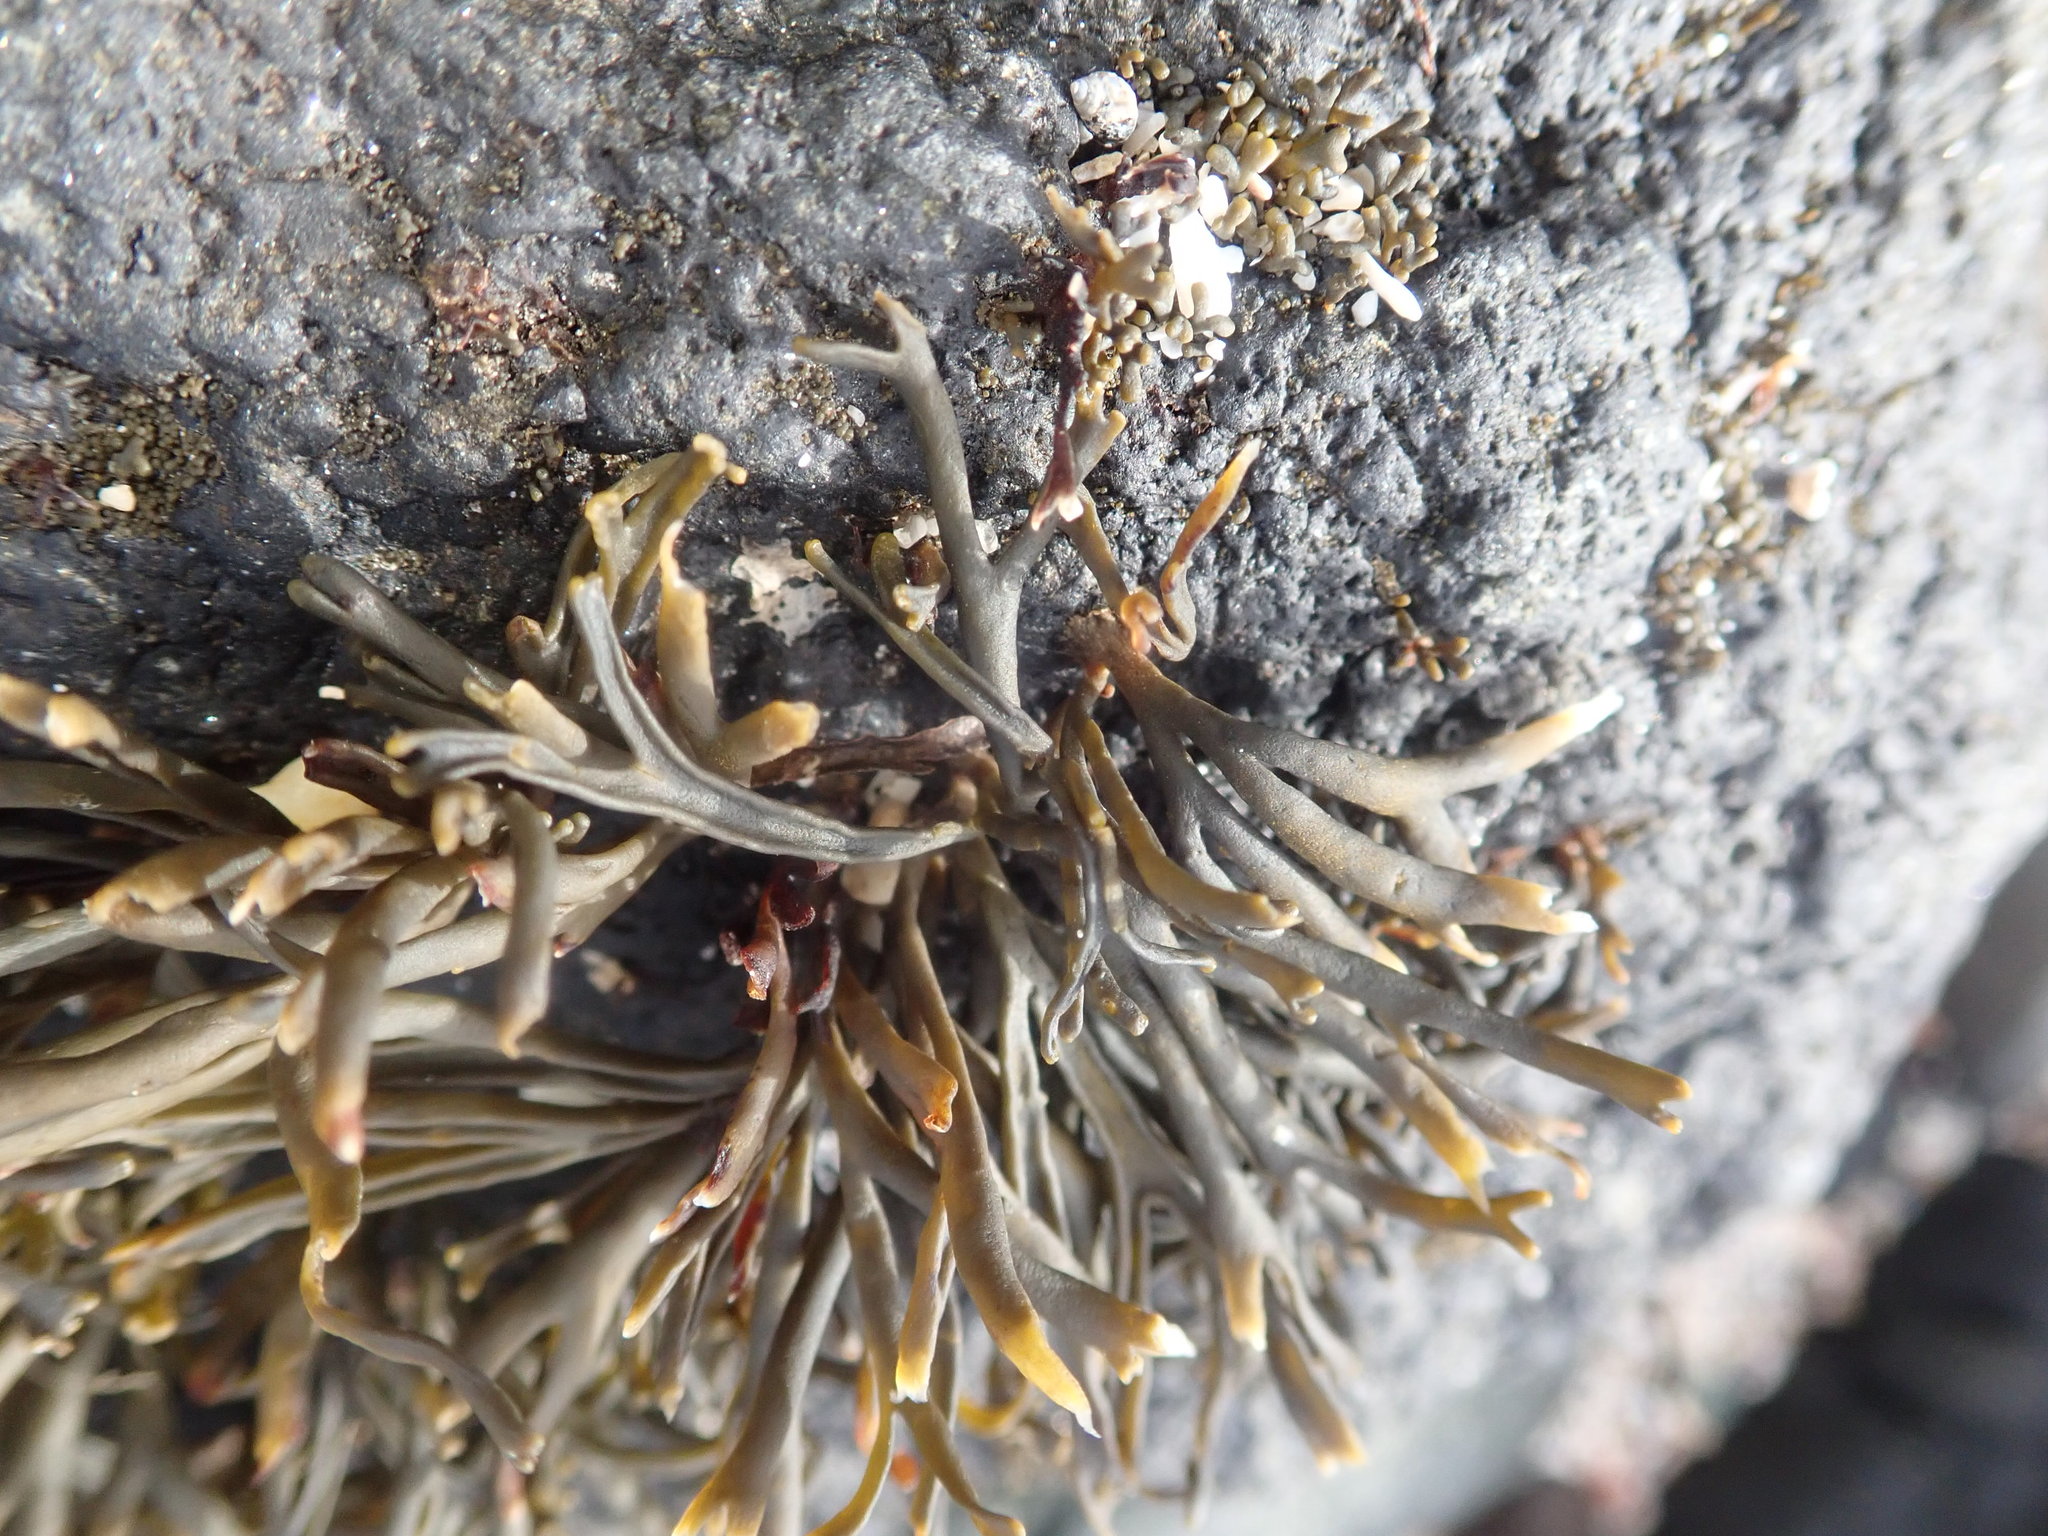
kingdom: Chromista
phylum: Ochrophyta
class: Phaeophyceae
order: Fucales
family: Fucaceae
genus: Pelvetia
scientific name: Pelvetia canaliculata
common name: Channelled wrack
